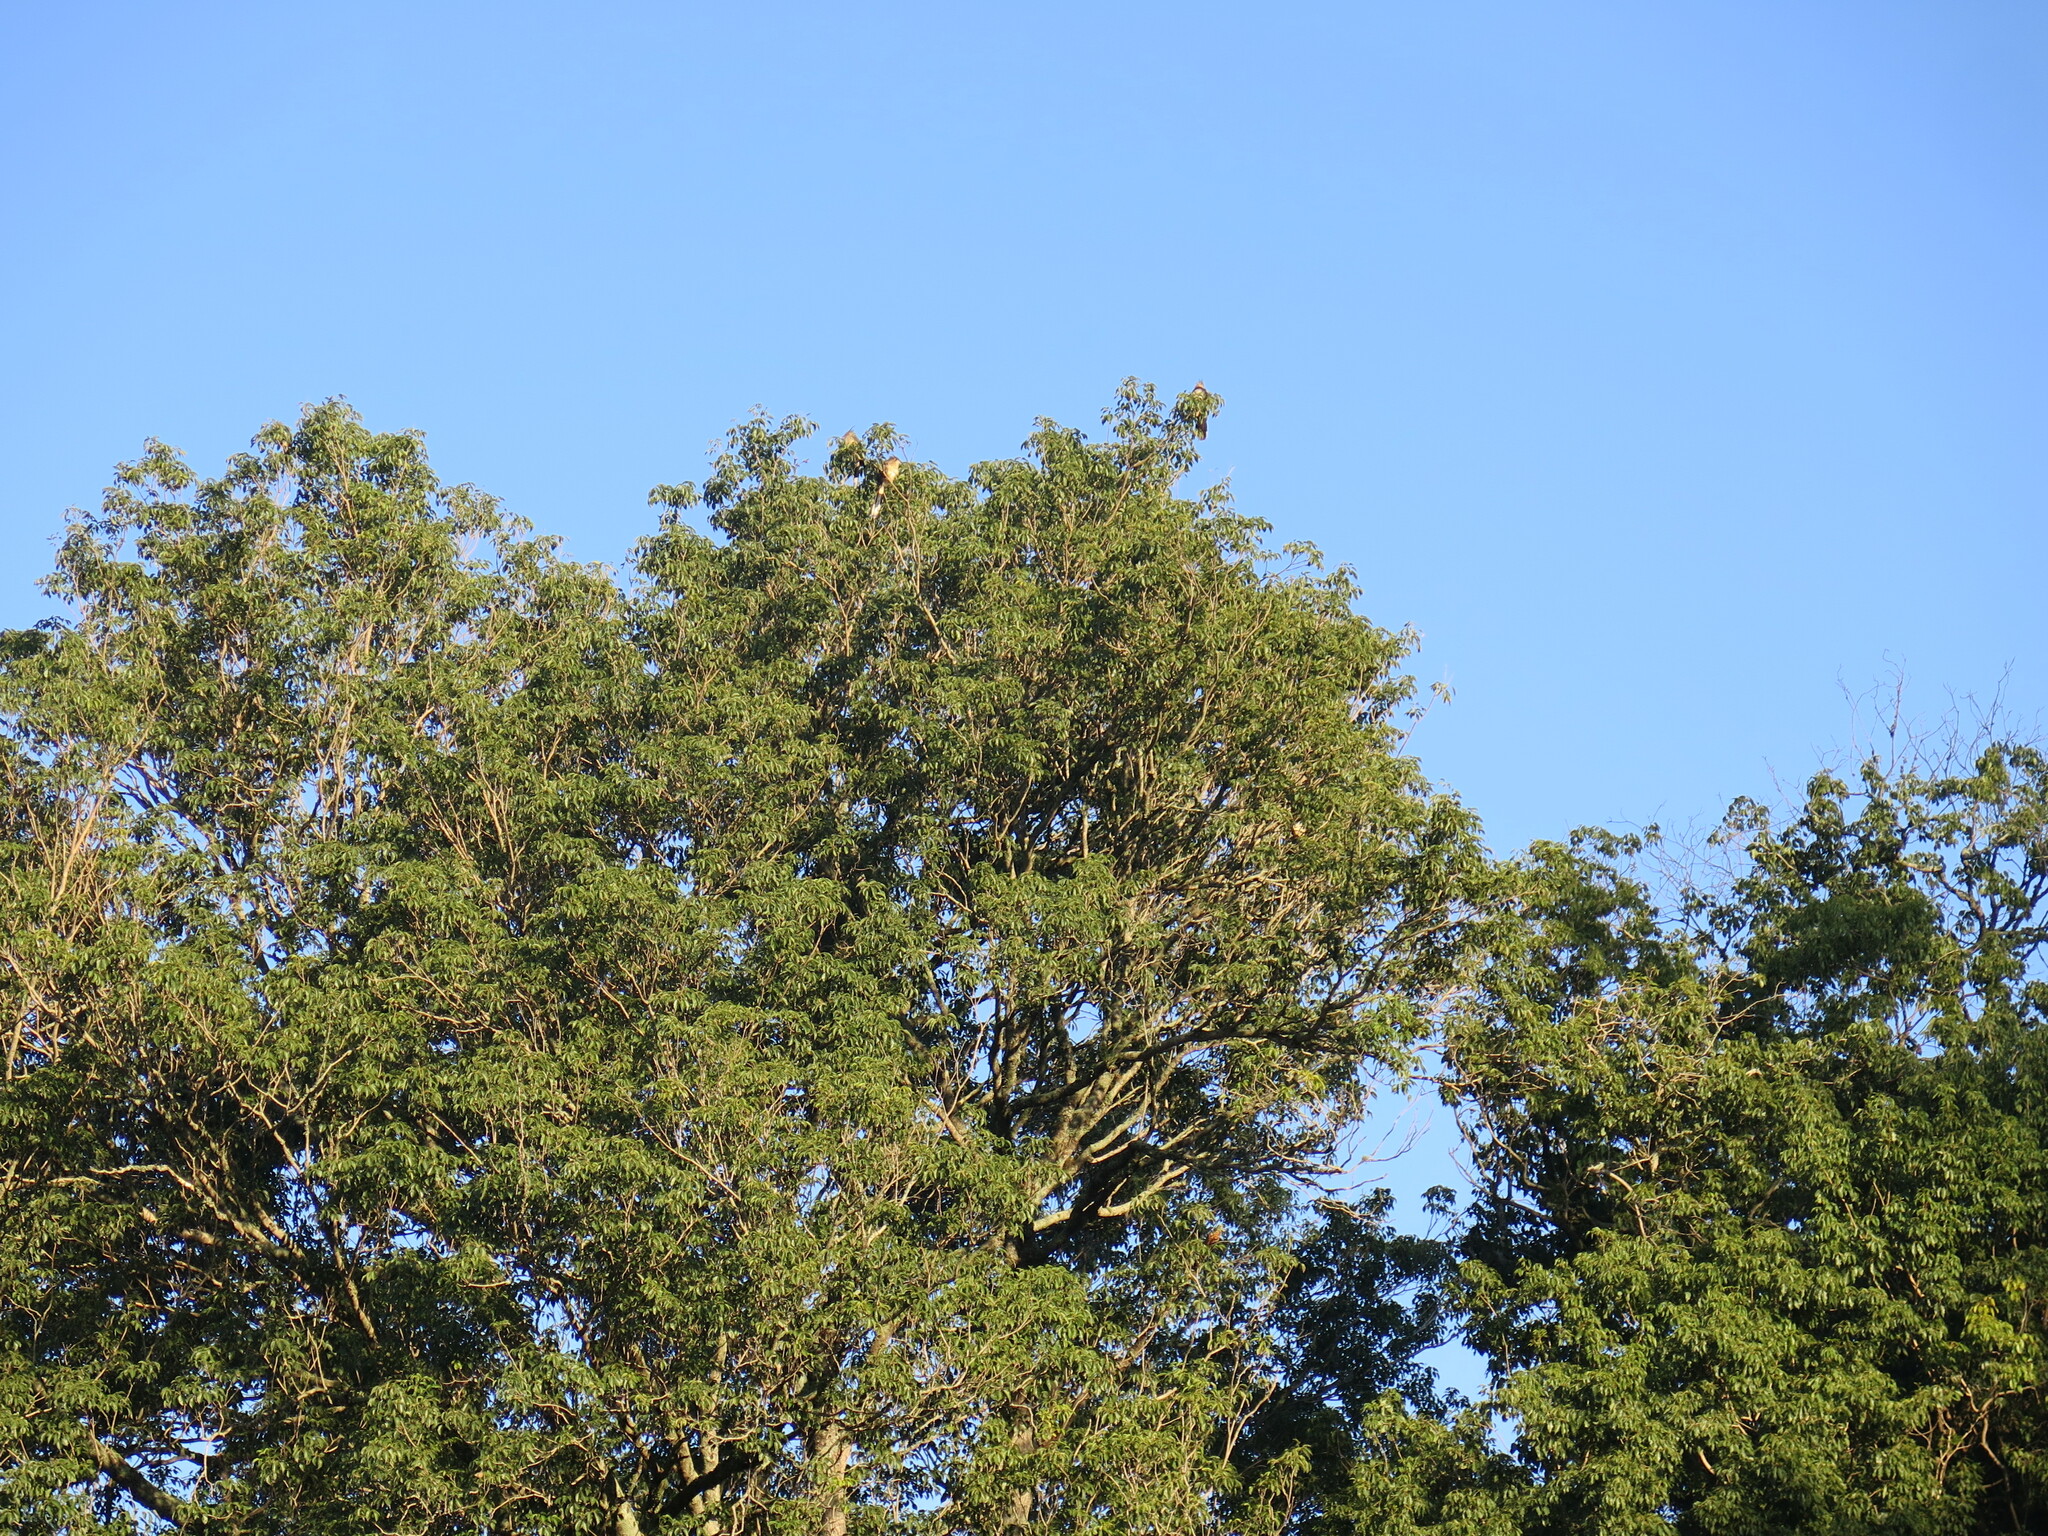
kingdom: Animalia
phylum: Chordata
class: Aves
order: Cuculiformes
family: Cuculidae
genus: Guira
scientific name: Guira guira
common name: Guira cuckoo
